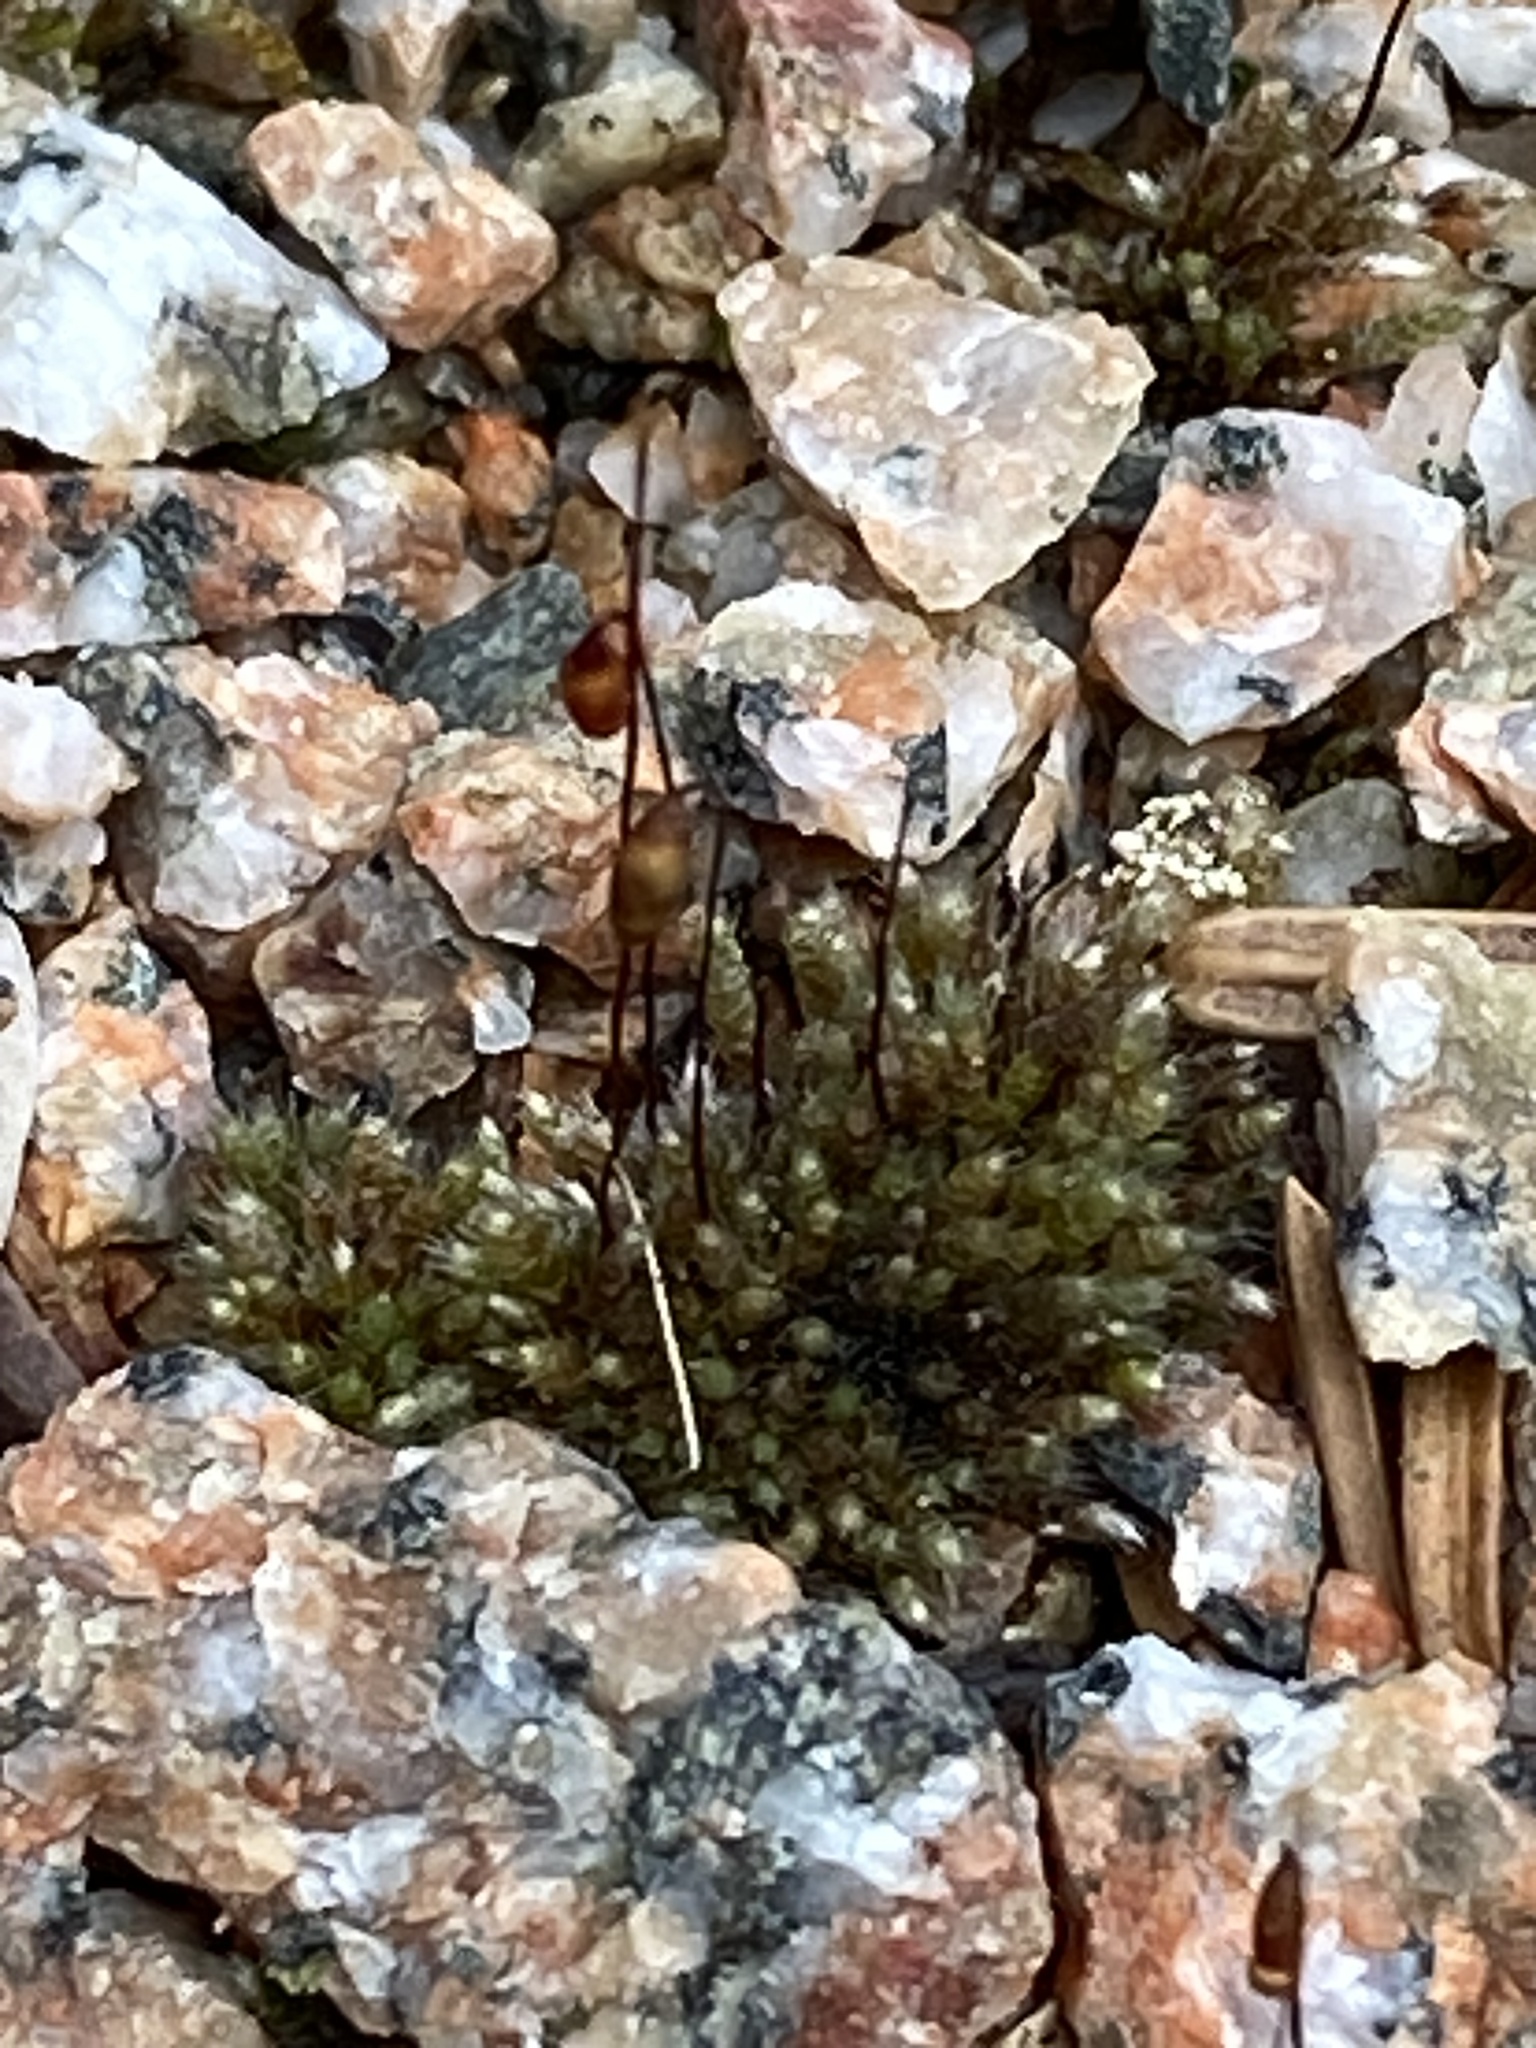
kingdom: Plantae
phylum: Bryophyta
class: Bryopsida
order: Bryales
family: Bryaceae
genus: Bryum
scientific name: Bryum argenteum
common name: Silver-moss
